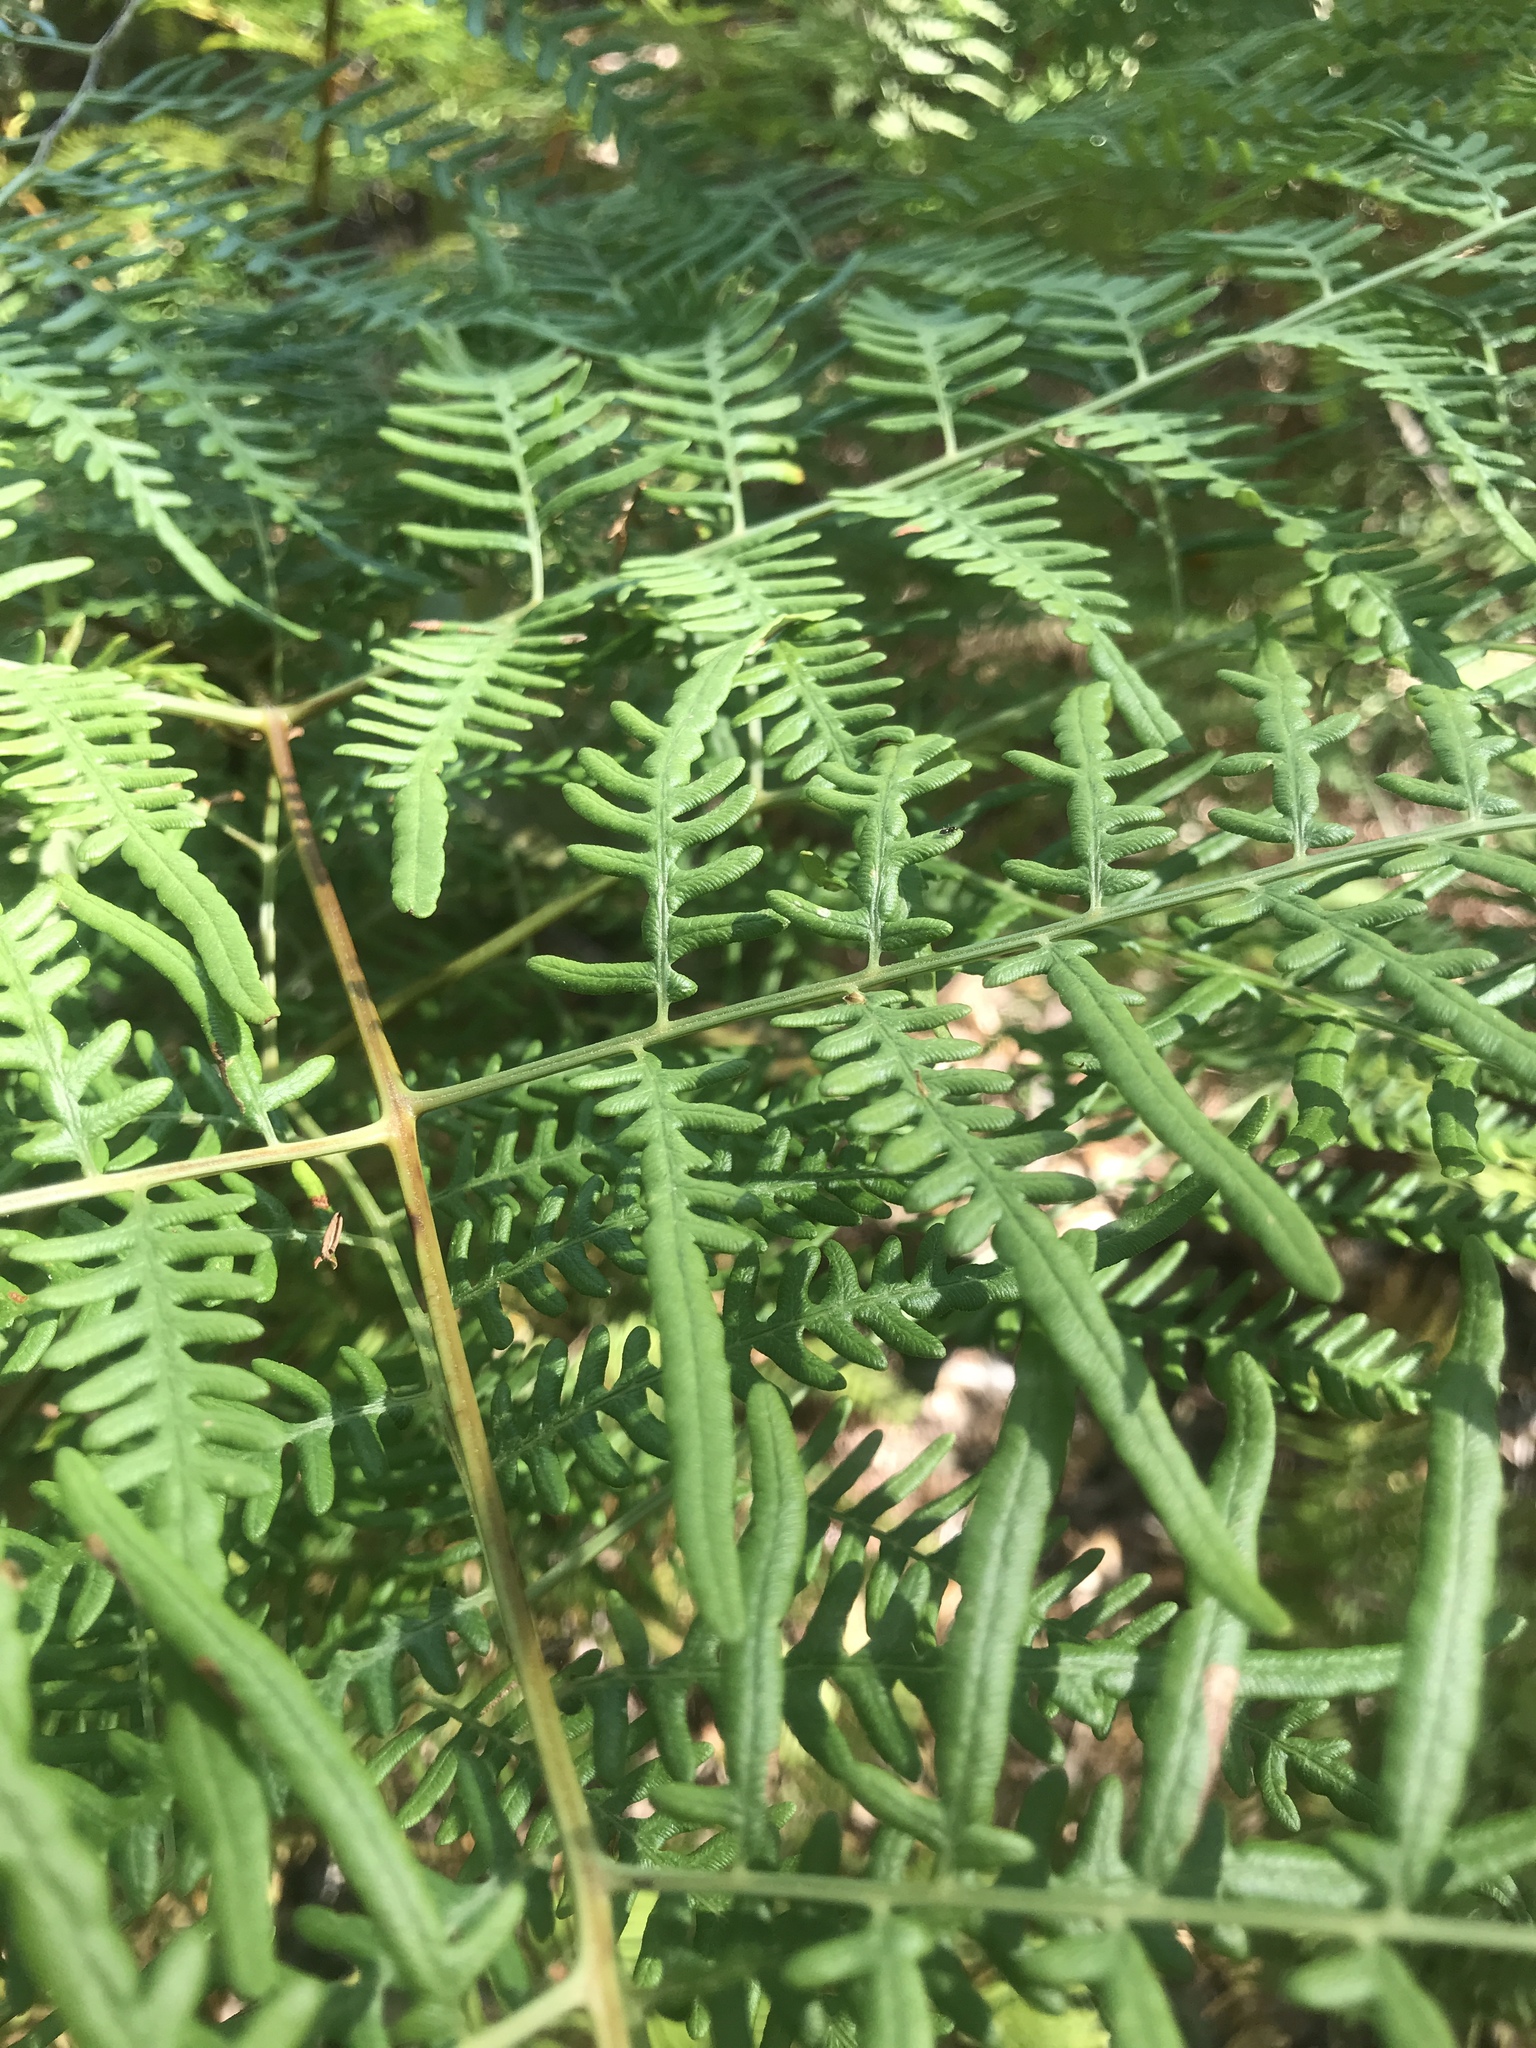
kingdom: Plantae
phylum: Tracheophyta
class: Polypodiopsida
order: Polypodiales
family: Dennstaedtiaceae
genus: Pteridium
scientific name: Pteridium caudatum
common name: Southern bracken fern
